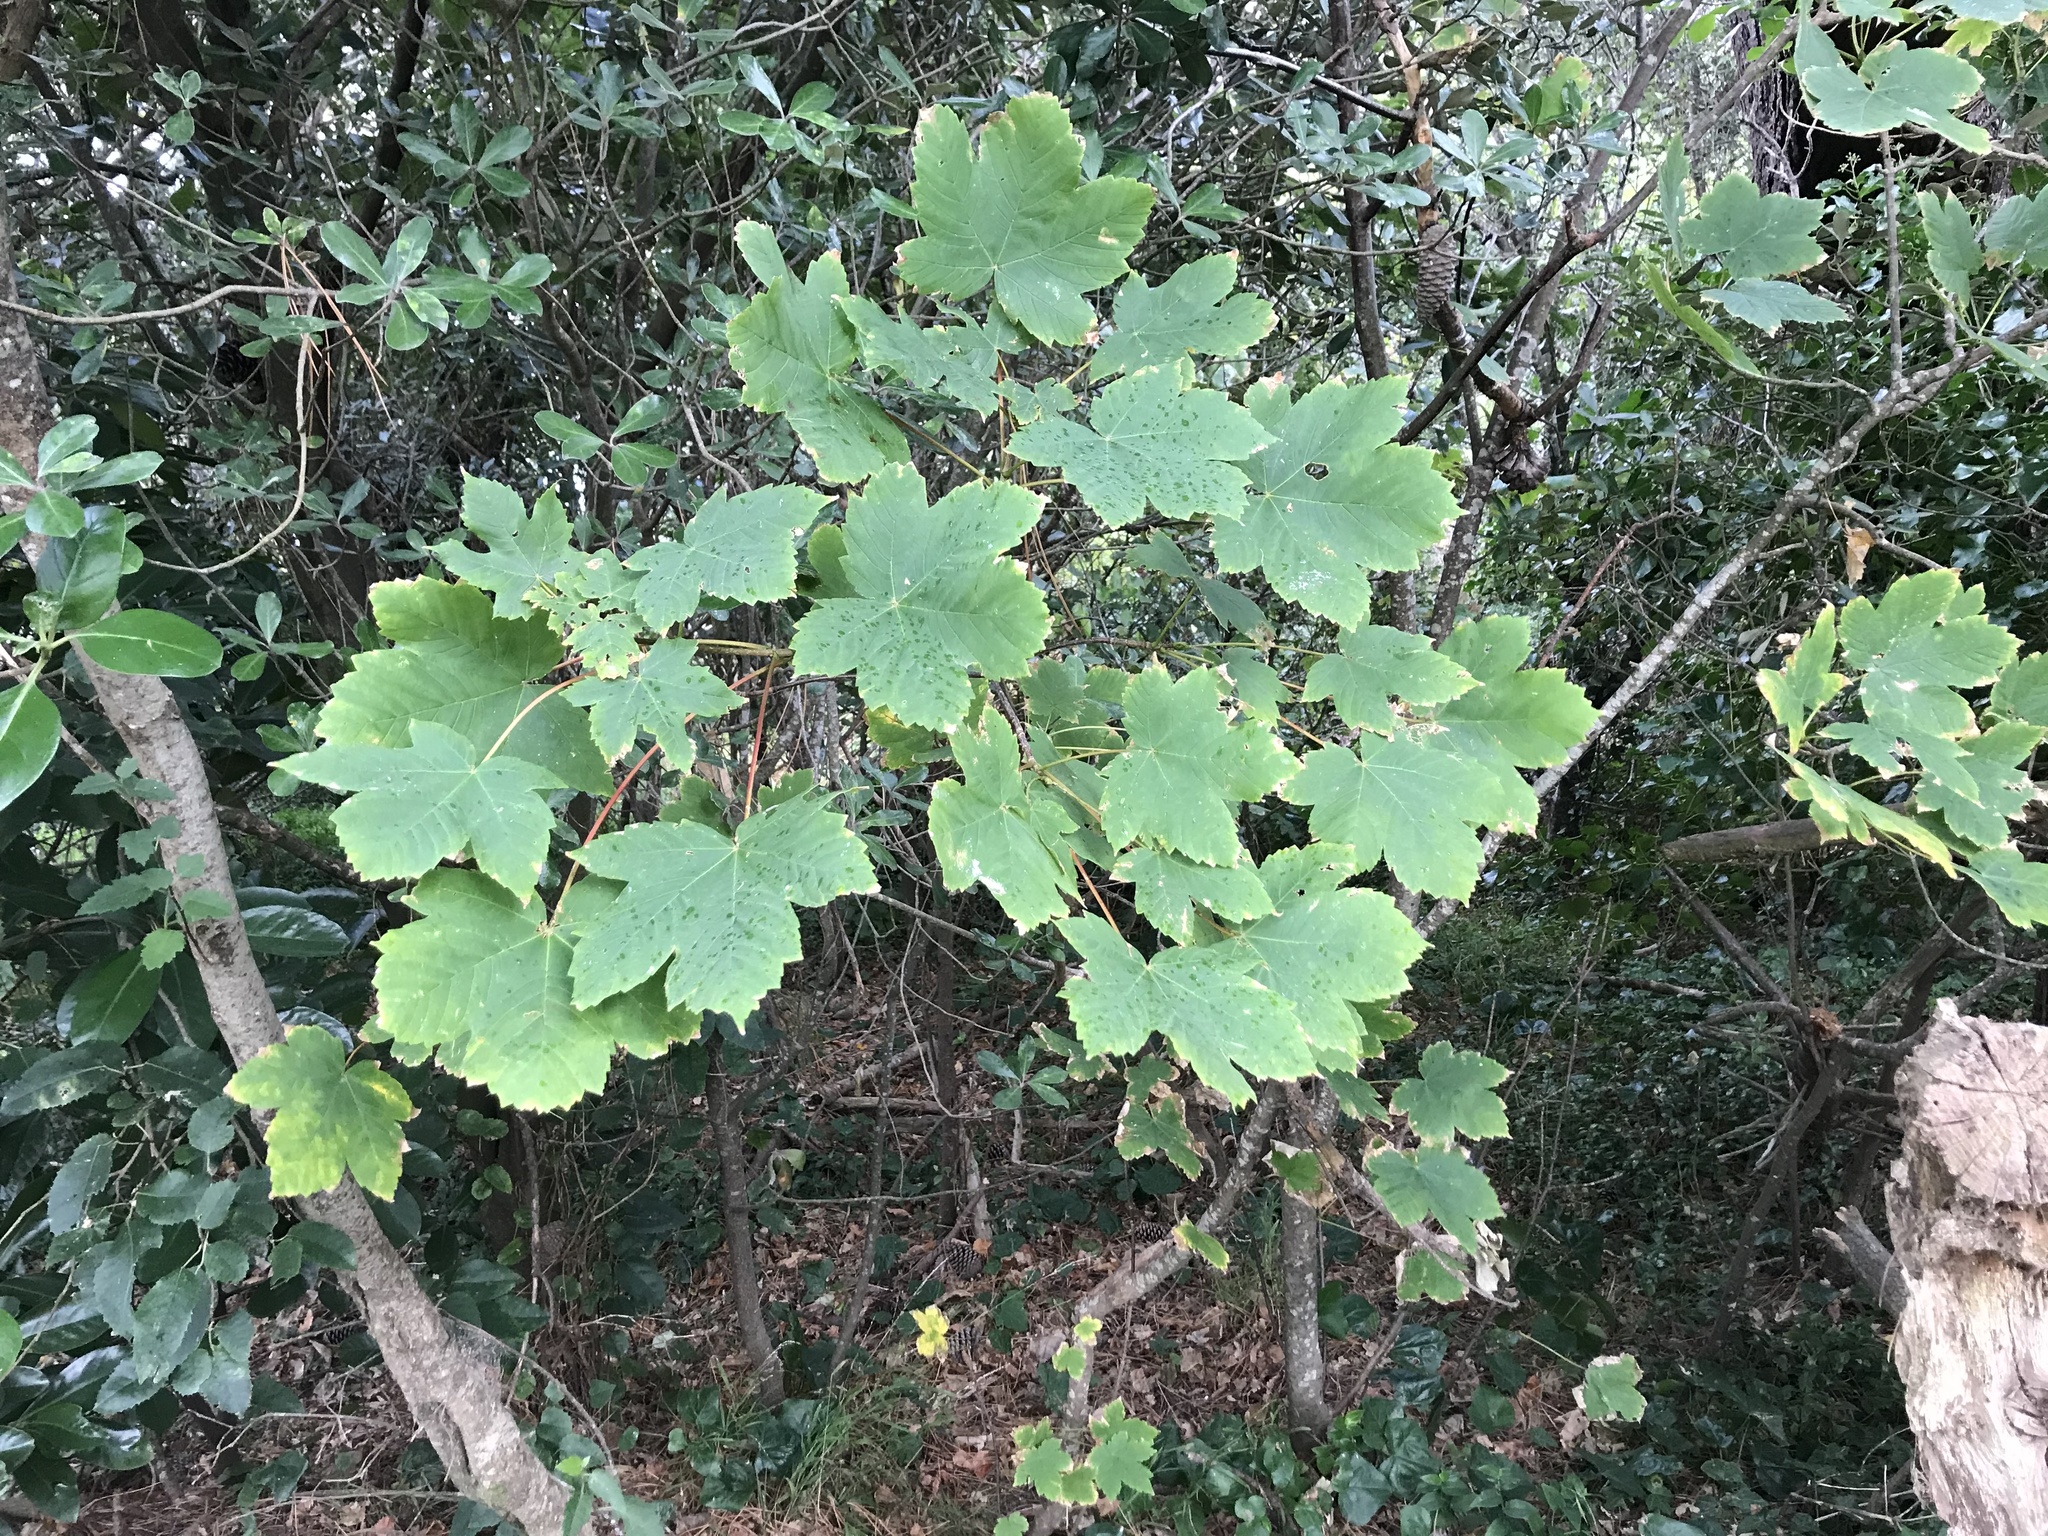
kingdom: Plantae
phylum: Tracheophyta
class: Magnoliopsida
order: Sapindales
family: Sapindaceae
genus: Acer
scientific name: Acer pseudoplatanus
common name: Sycamore
